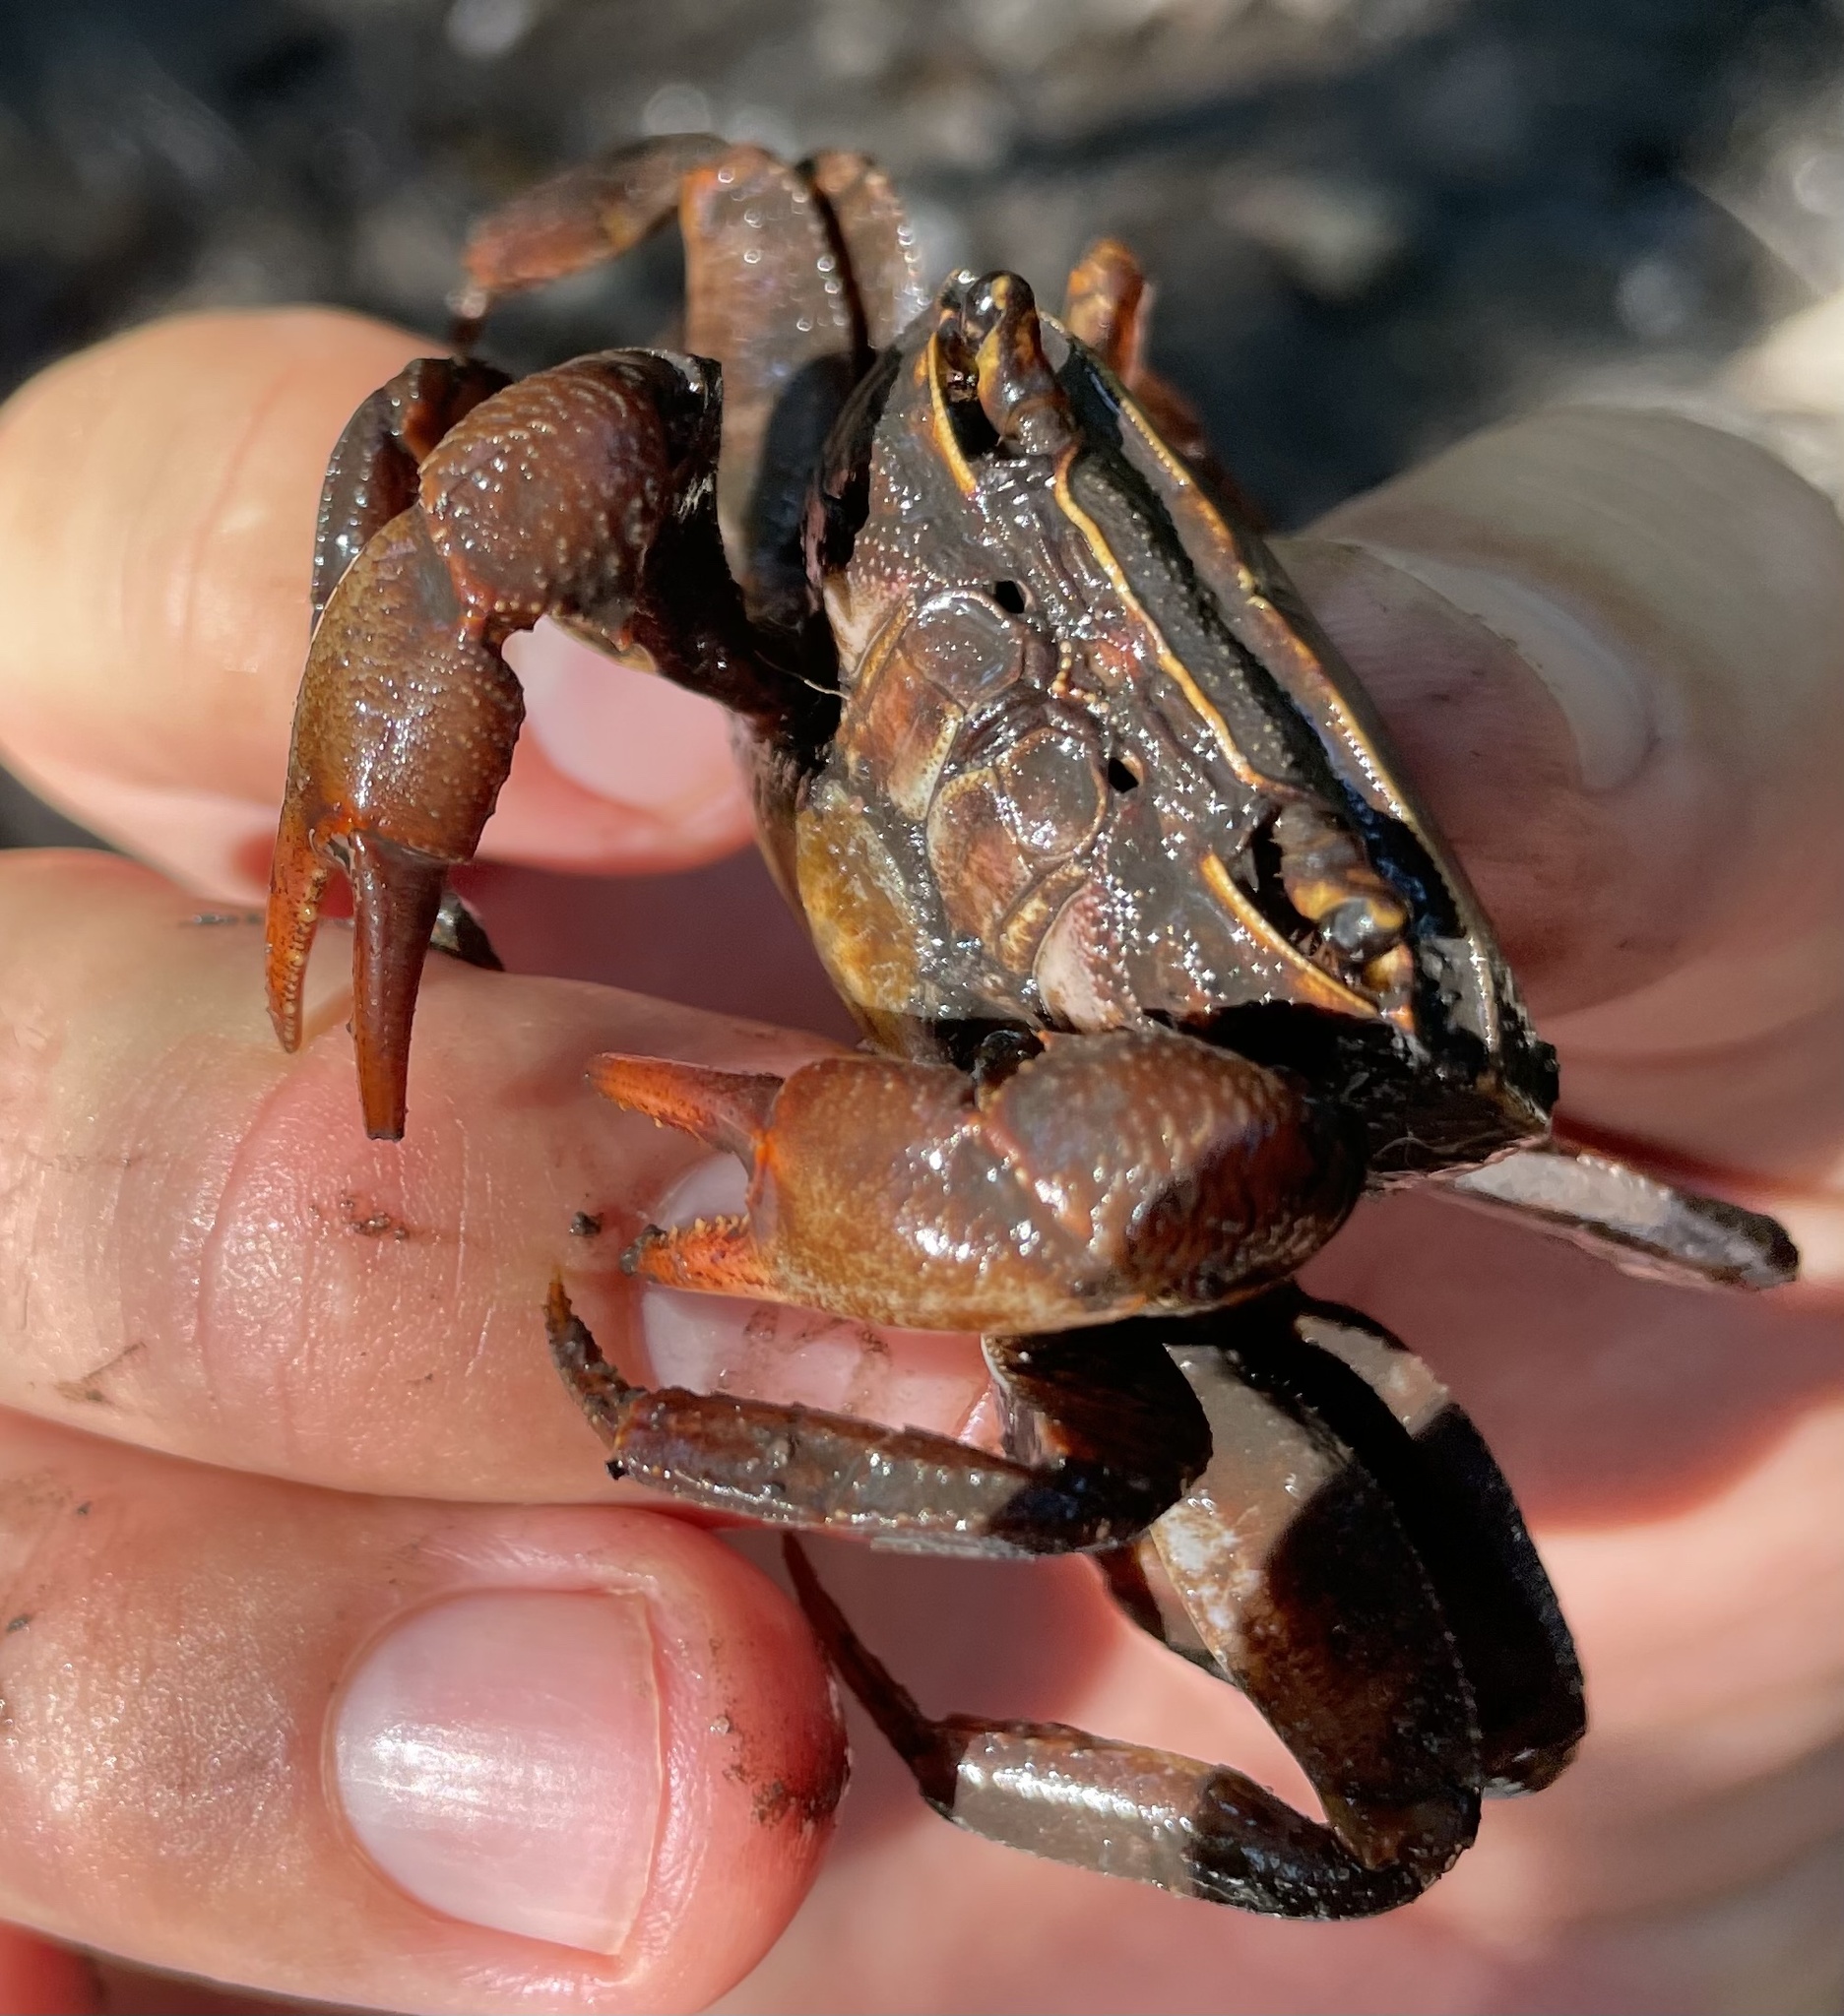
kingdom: Animalia
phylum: Arthropoda
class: Malacostraca
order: Decapoda
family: Potamonautidae
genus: Potamonautes
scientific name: Potamonautes sidneyi
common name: Natal river crab
